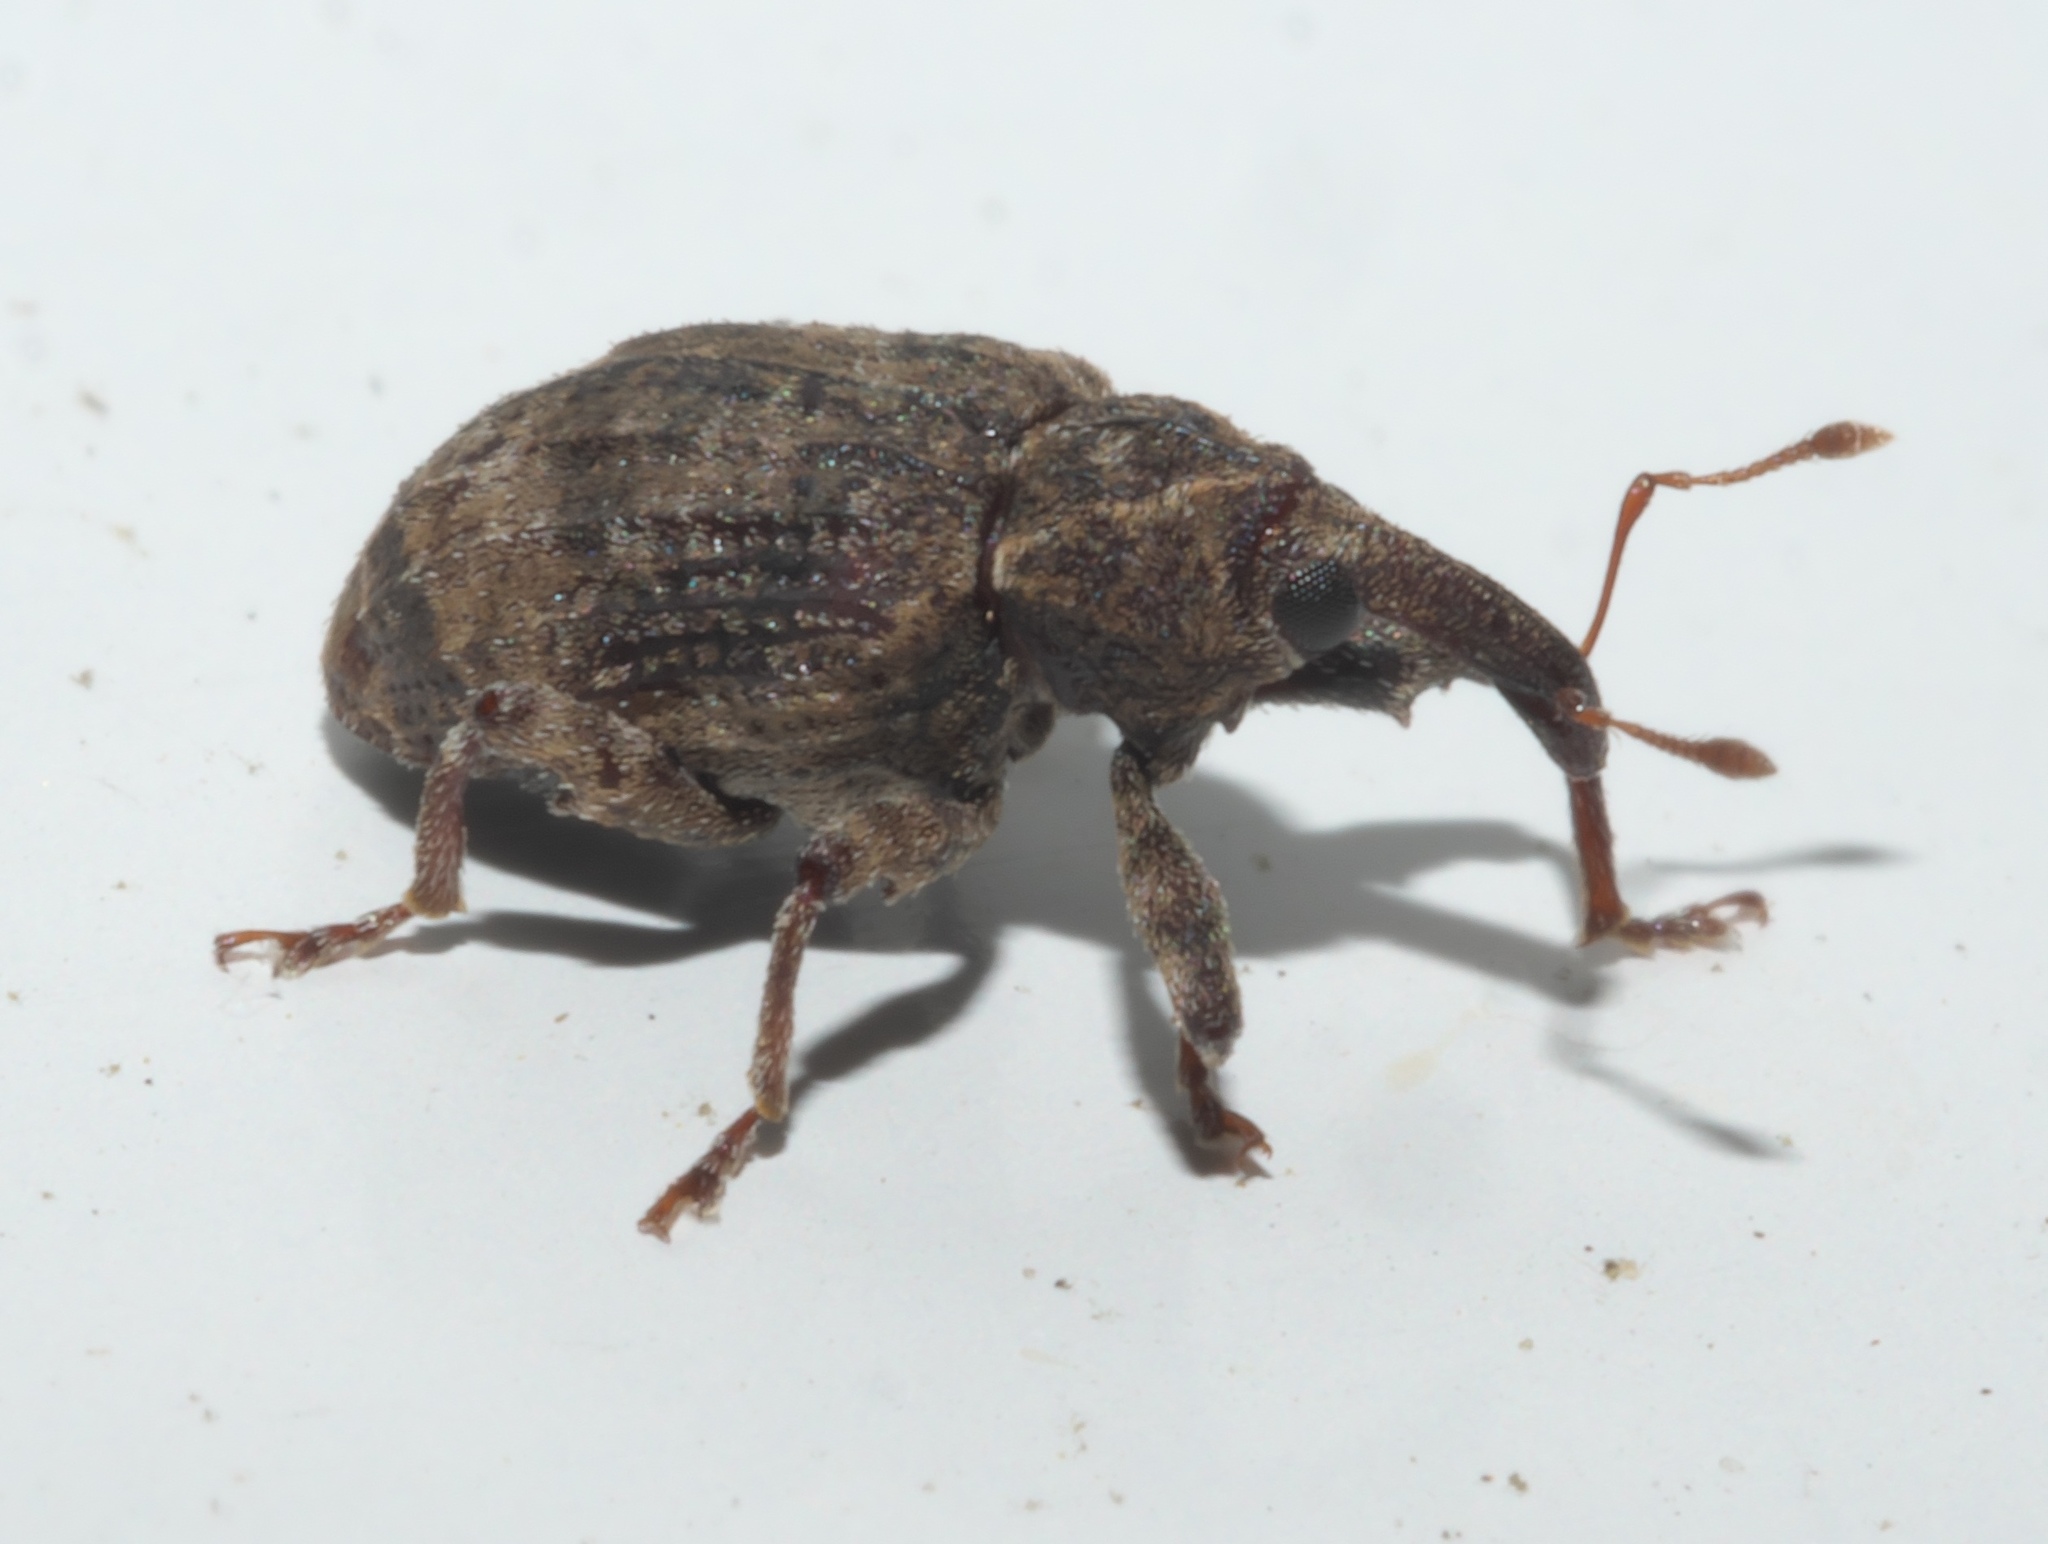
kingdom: Animalia
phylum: Arthropoda
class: Insecta
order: Coleoptera
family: Curculionidae
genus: Conotrachelus
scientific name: Conotrachelus seniculus
